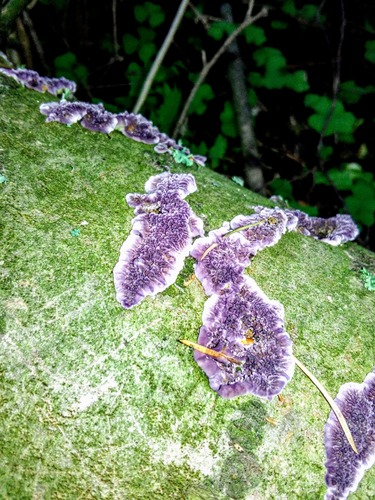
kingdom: Fungi
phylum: Basidiomycota
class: Agaricomycetes
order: Hymenochaetales
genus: Trichaptum
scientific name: Trichaptum fuscoviolaceum
